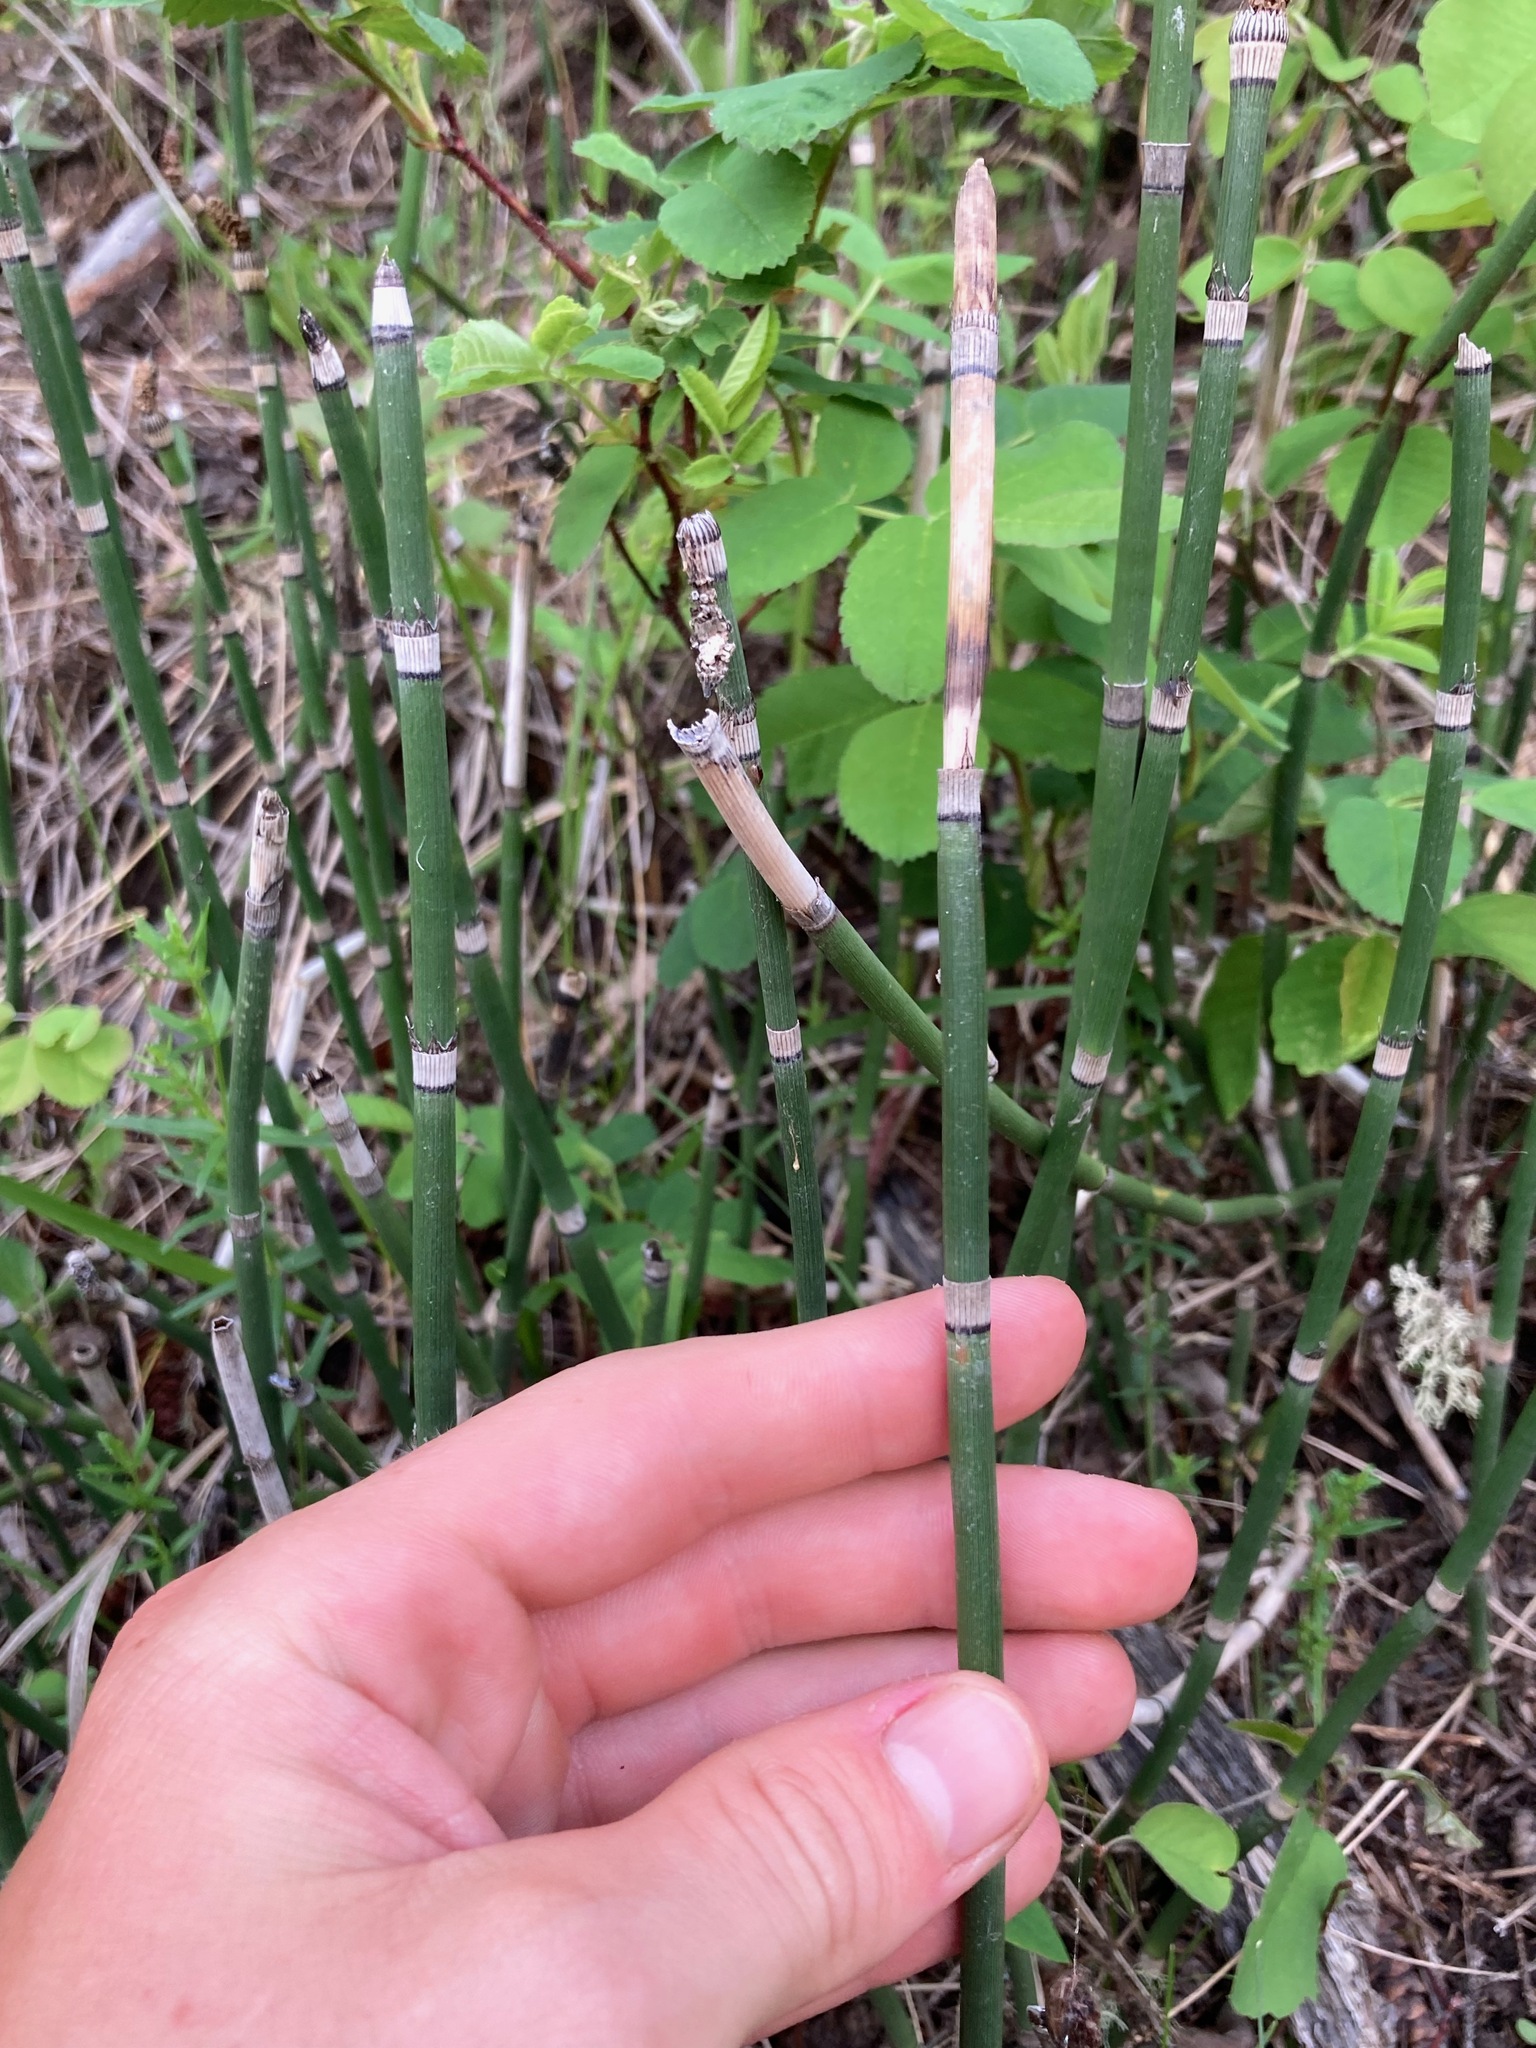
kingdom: Plantae
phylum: Tracheophyta
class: Polypodiopsida
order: Equisetales
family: Equisetaceae
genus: Equisetum
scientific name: Equisetum praealtum
